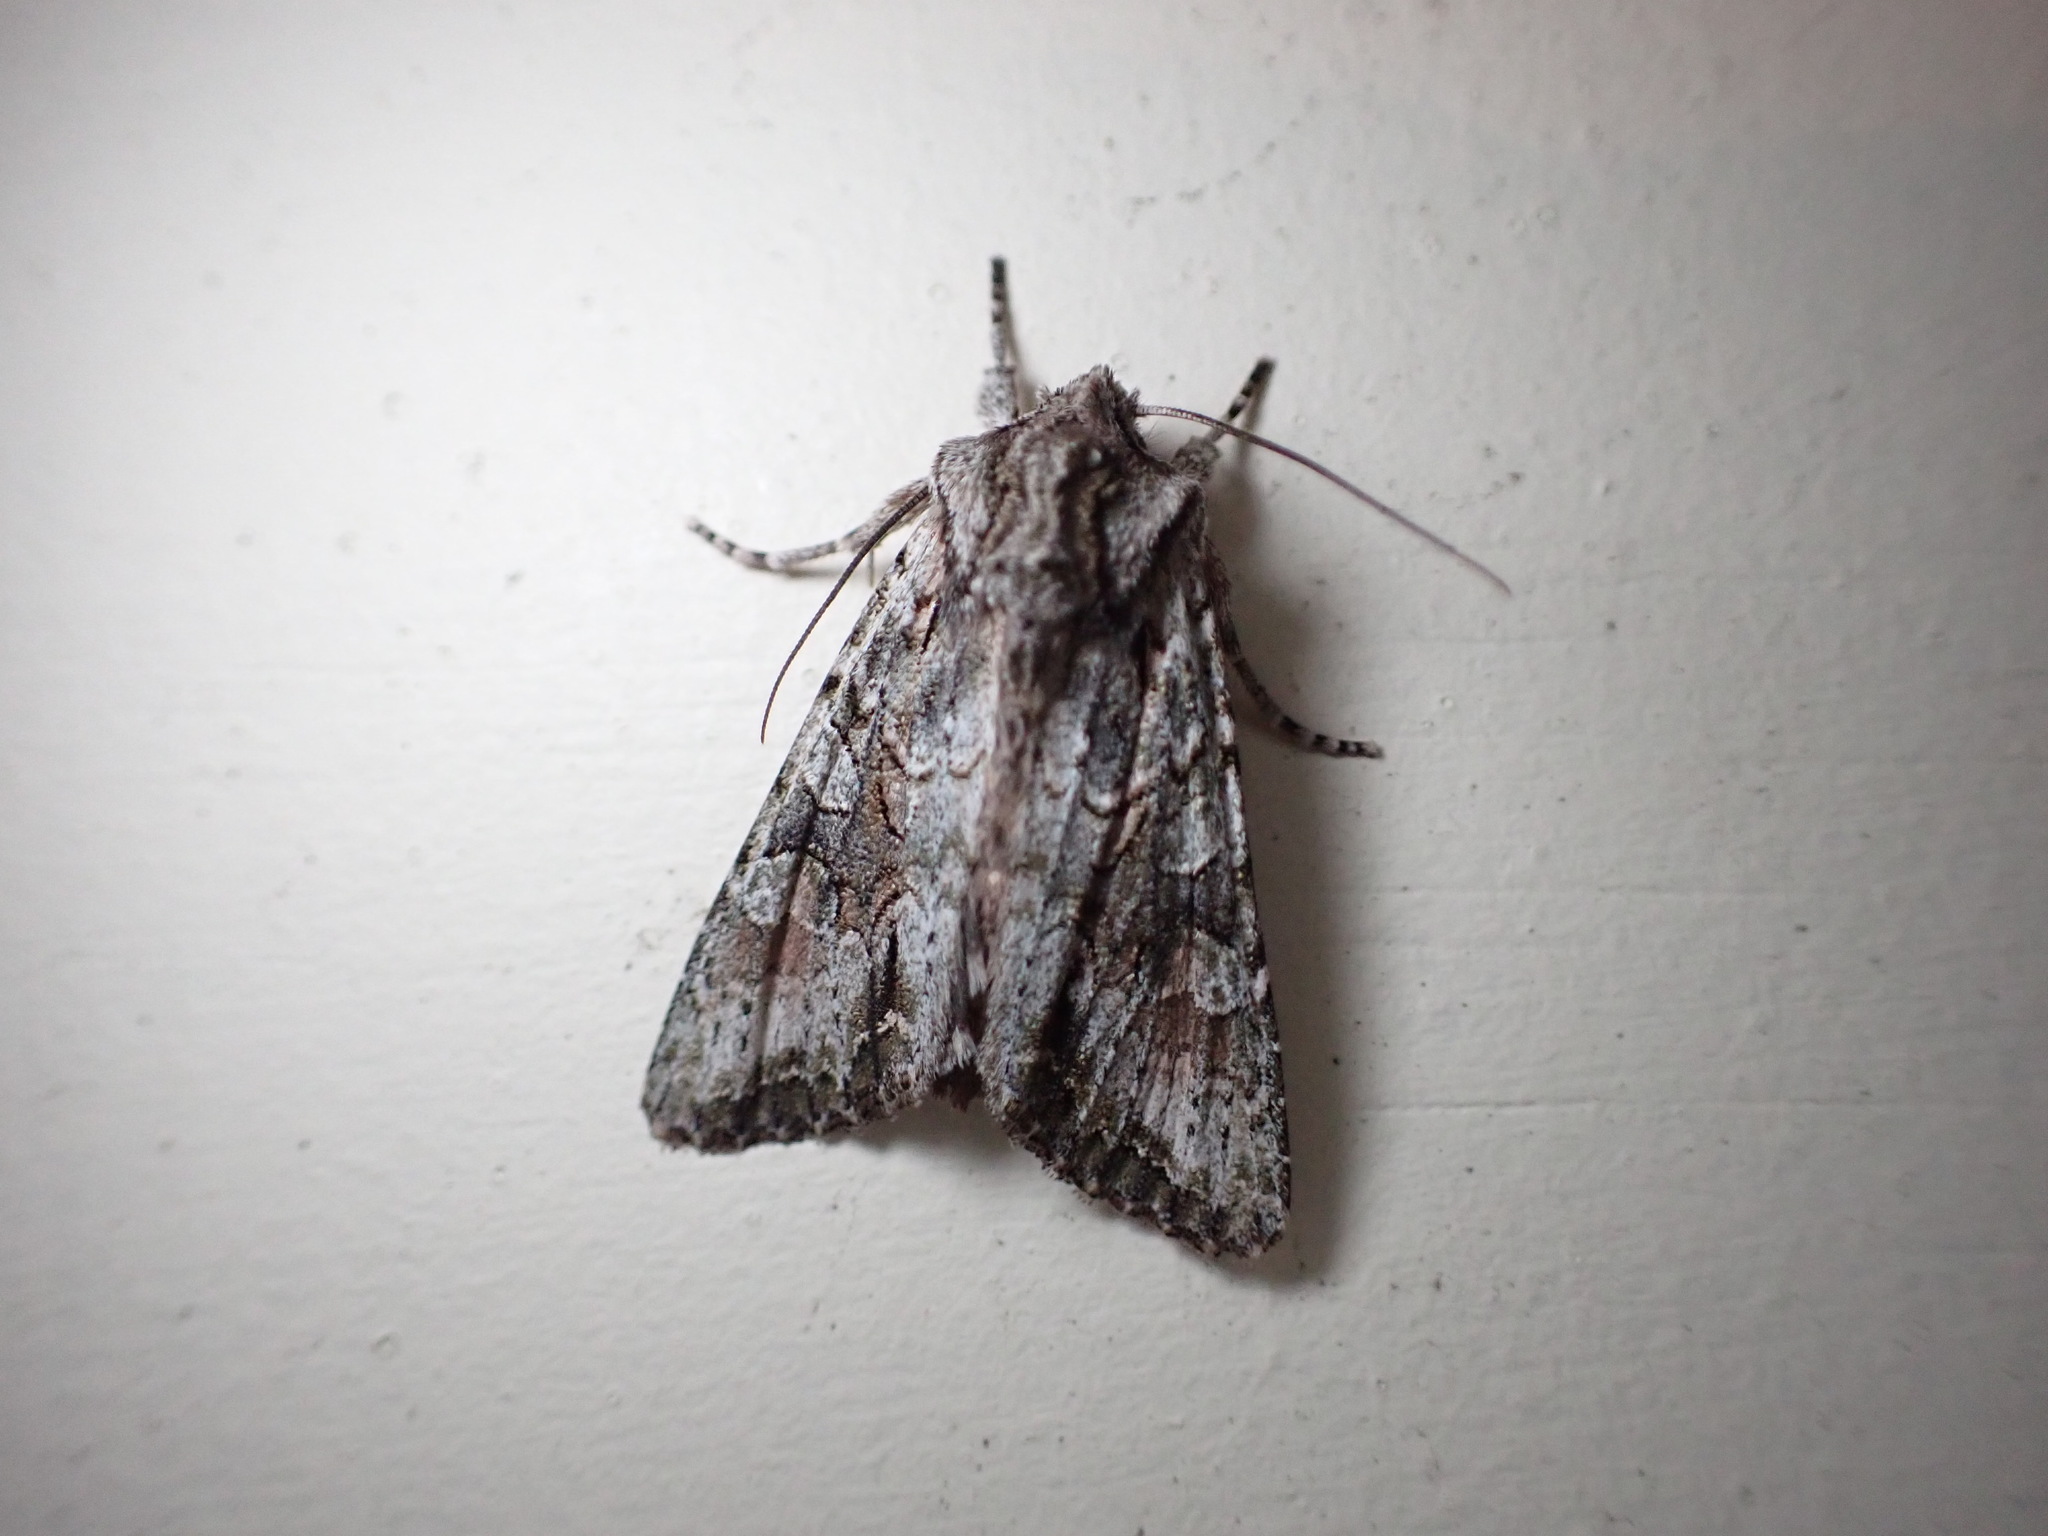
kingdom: Animalia
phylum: Arthropoda
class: Insecta
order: Lepidoptera
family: Noctuidae
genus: Ichneutica
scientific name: Ichneutica mutans
